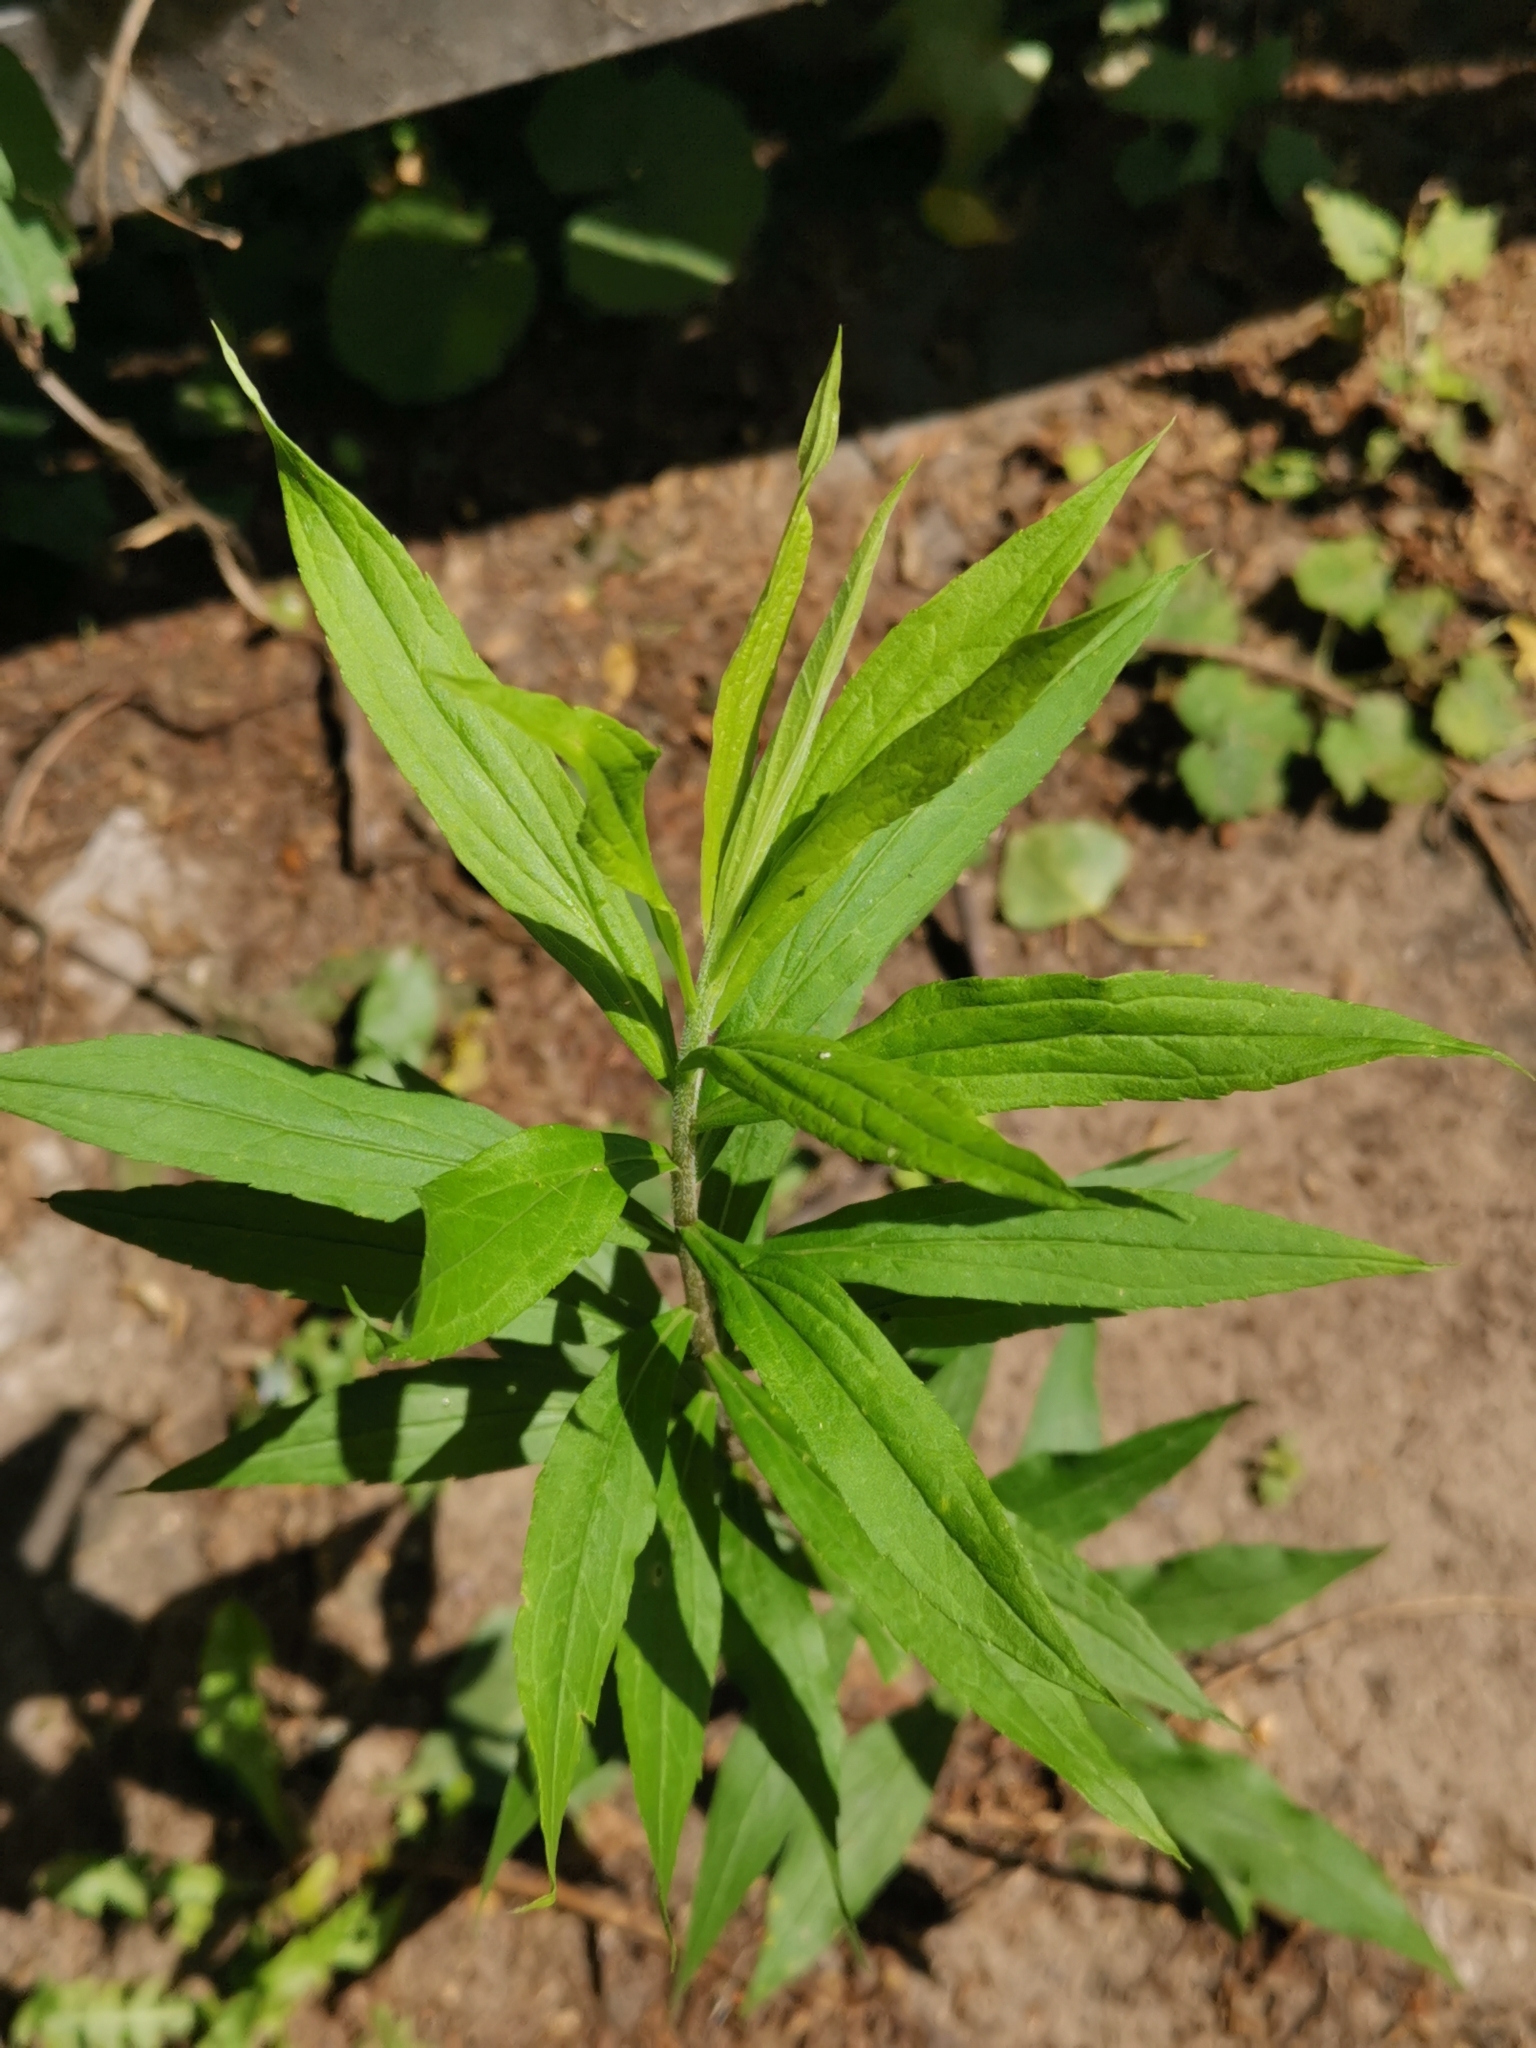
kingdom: Plantae
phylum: Tracheophyta
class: Magnoliopsida
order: Asterales
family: Asteraceae
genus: Solidago
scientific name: Solidago canadensis
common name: Canada goldenrod
